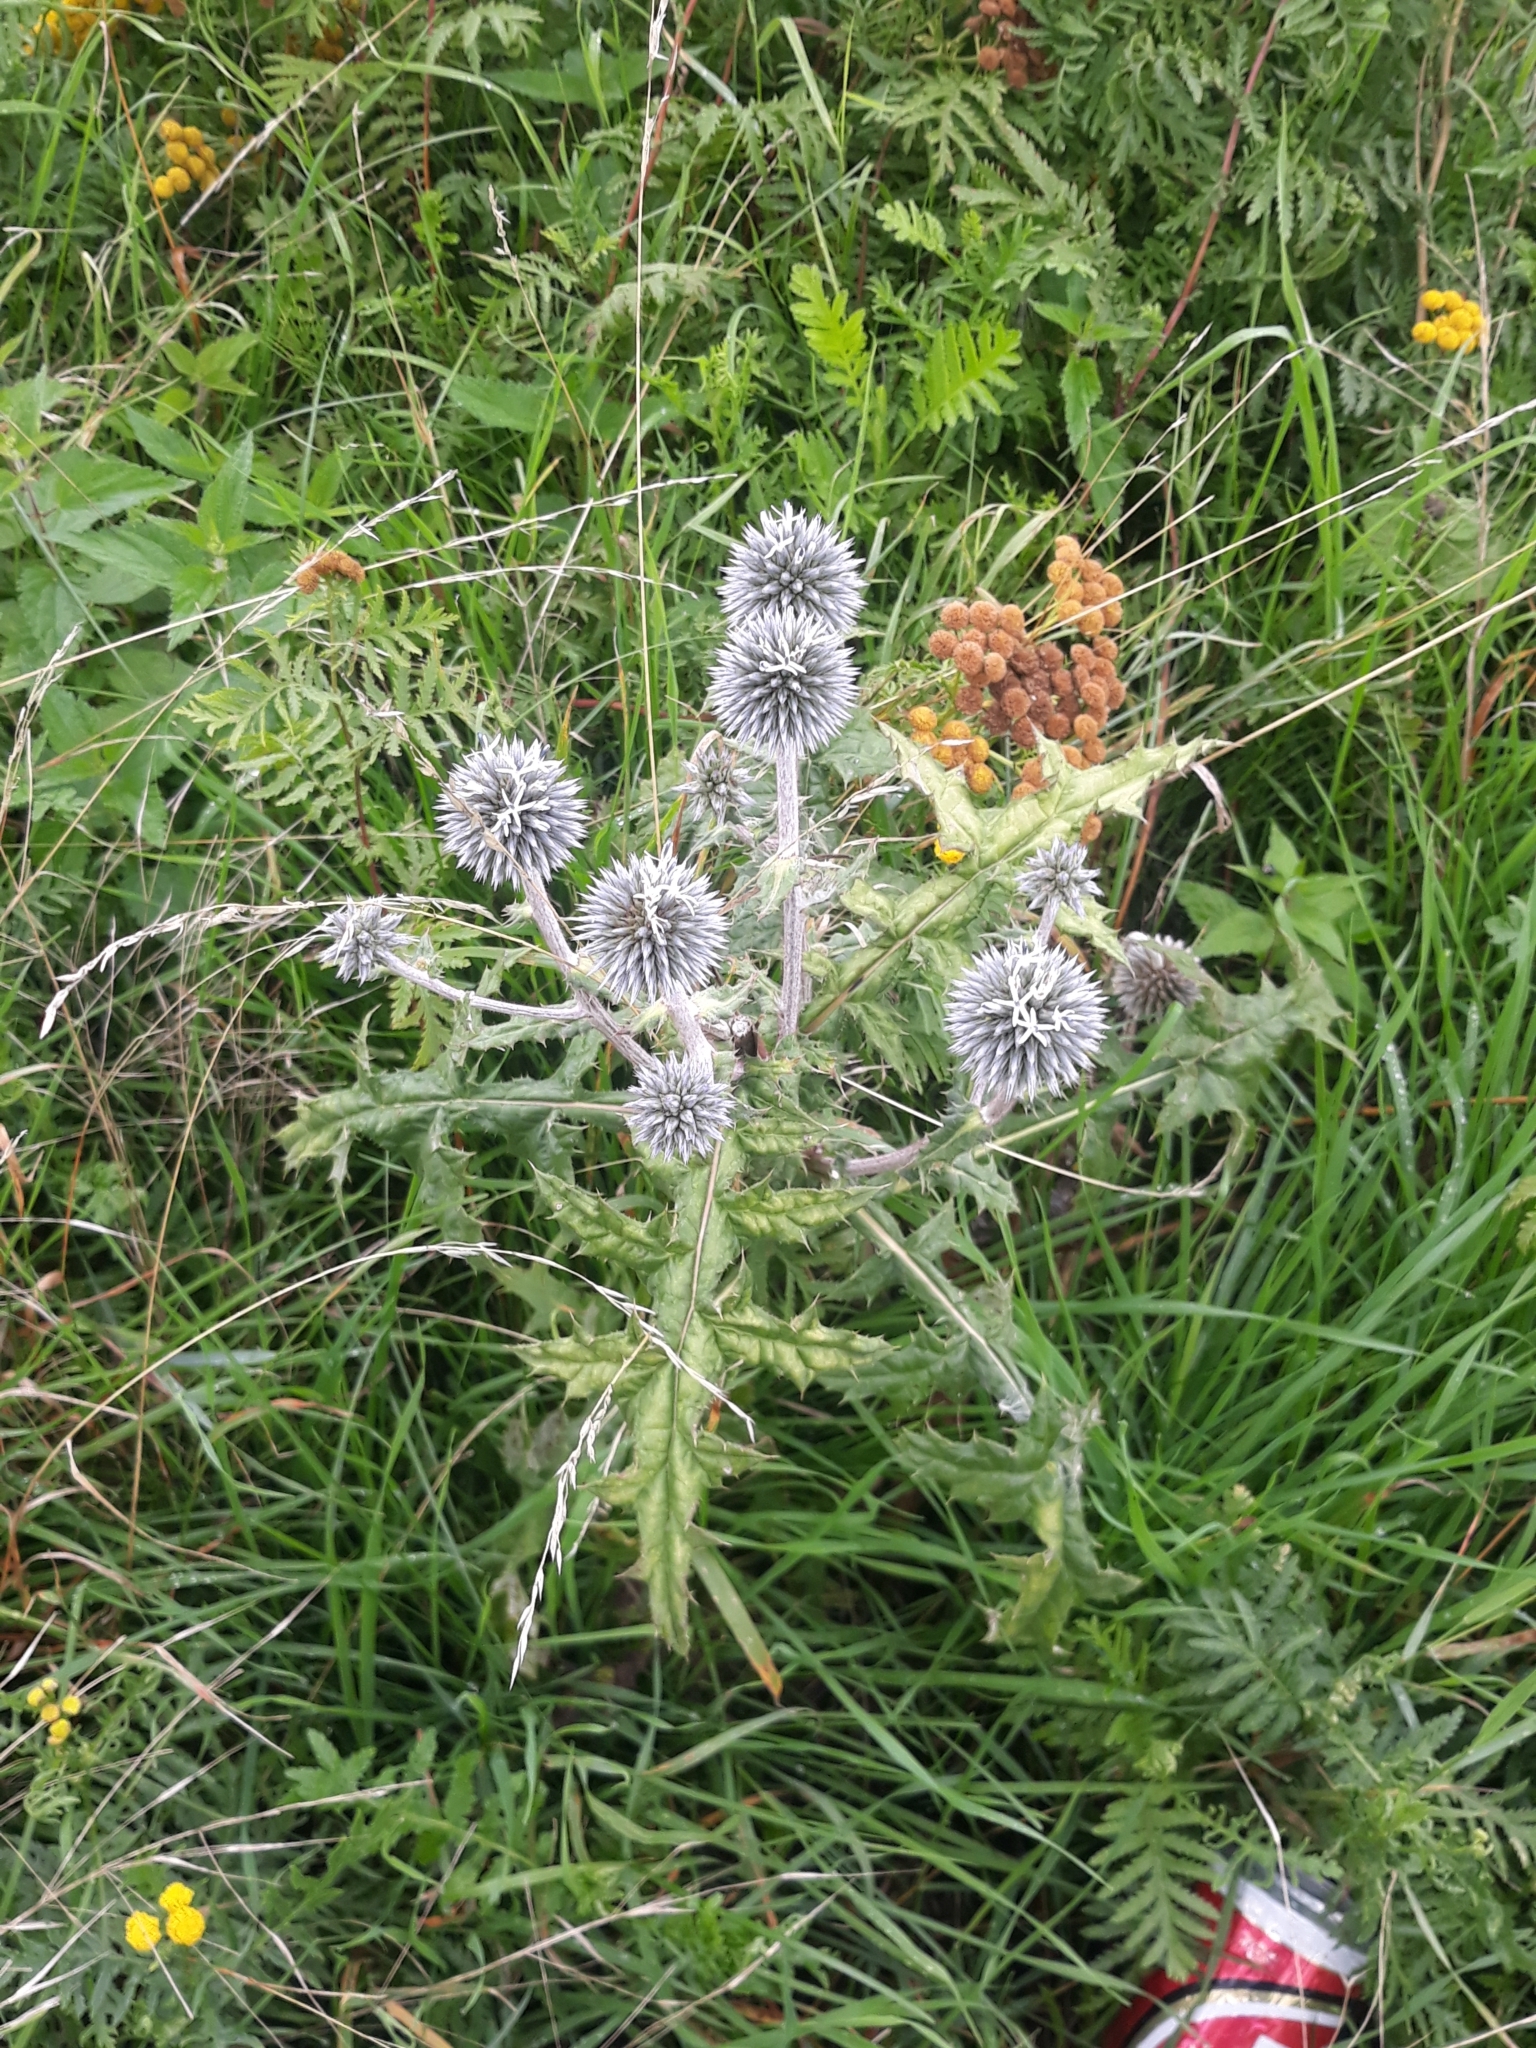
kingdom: Plantae
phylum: Tracheophyta
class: Magnoliopsida
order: Asterales
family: Asteraceae
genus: Echinops
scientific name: Echinops sphaerocephalus
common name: Glandular globe-thistle
